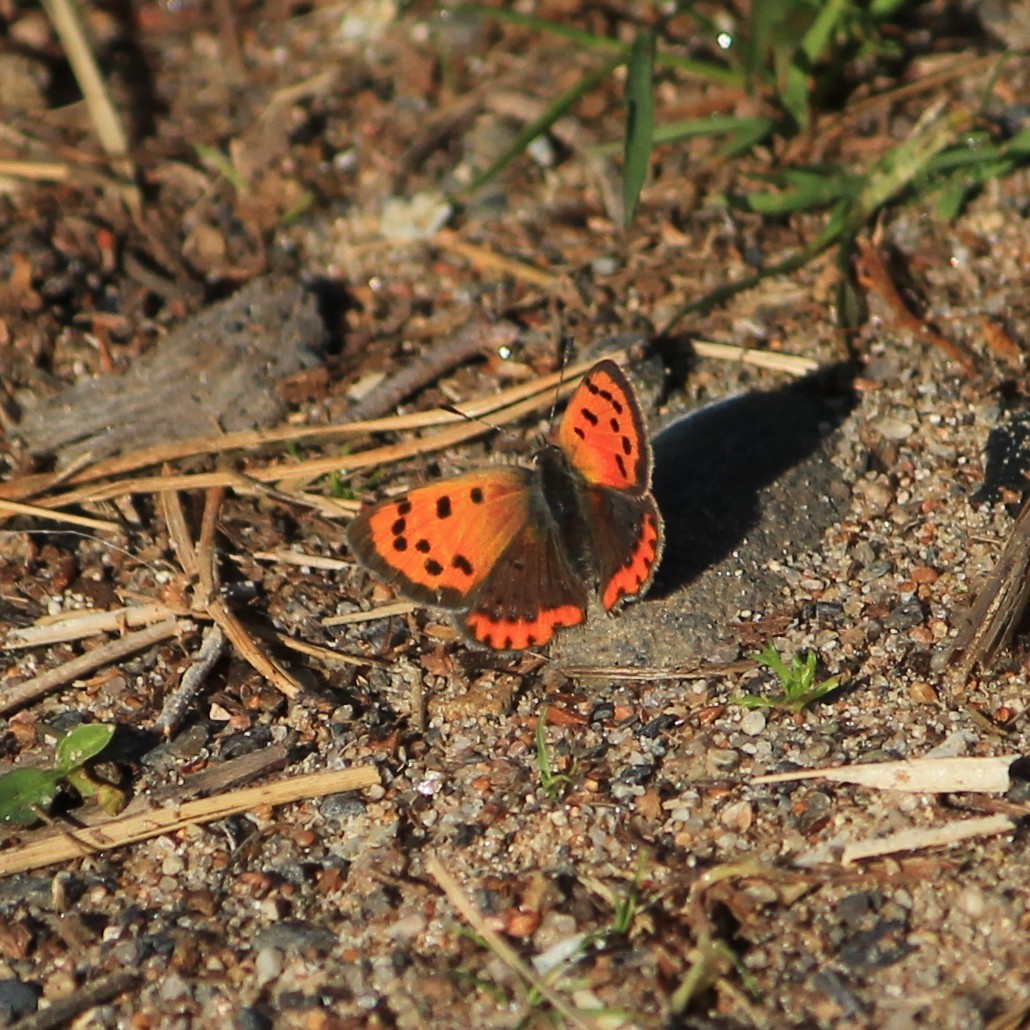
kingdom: Animalia
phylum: Arthropoda
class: Insecta
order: Lepidoptera
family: Lycaenidae
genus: Lycaena
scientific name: Lycaena phlaeas
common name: Small copper
